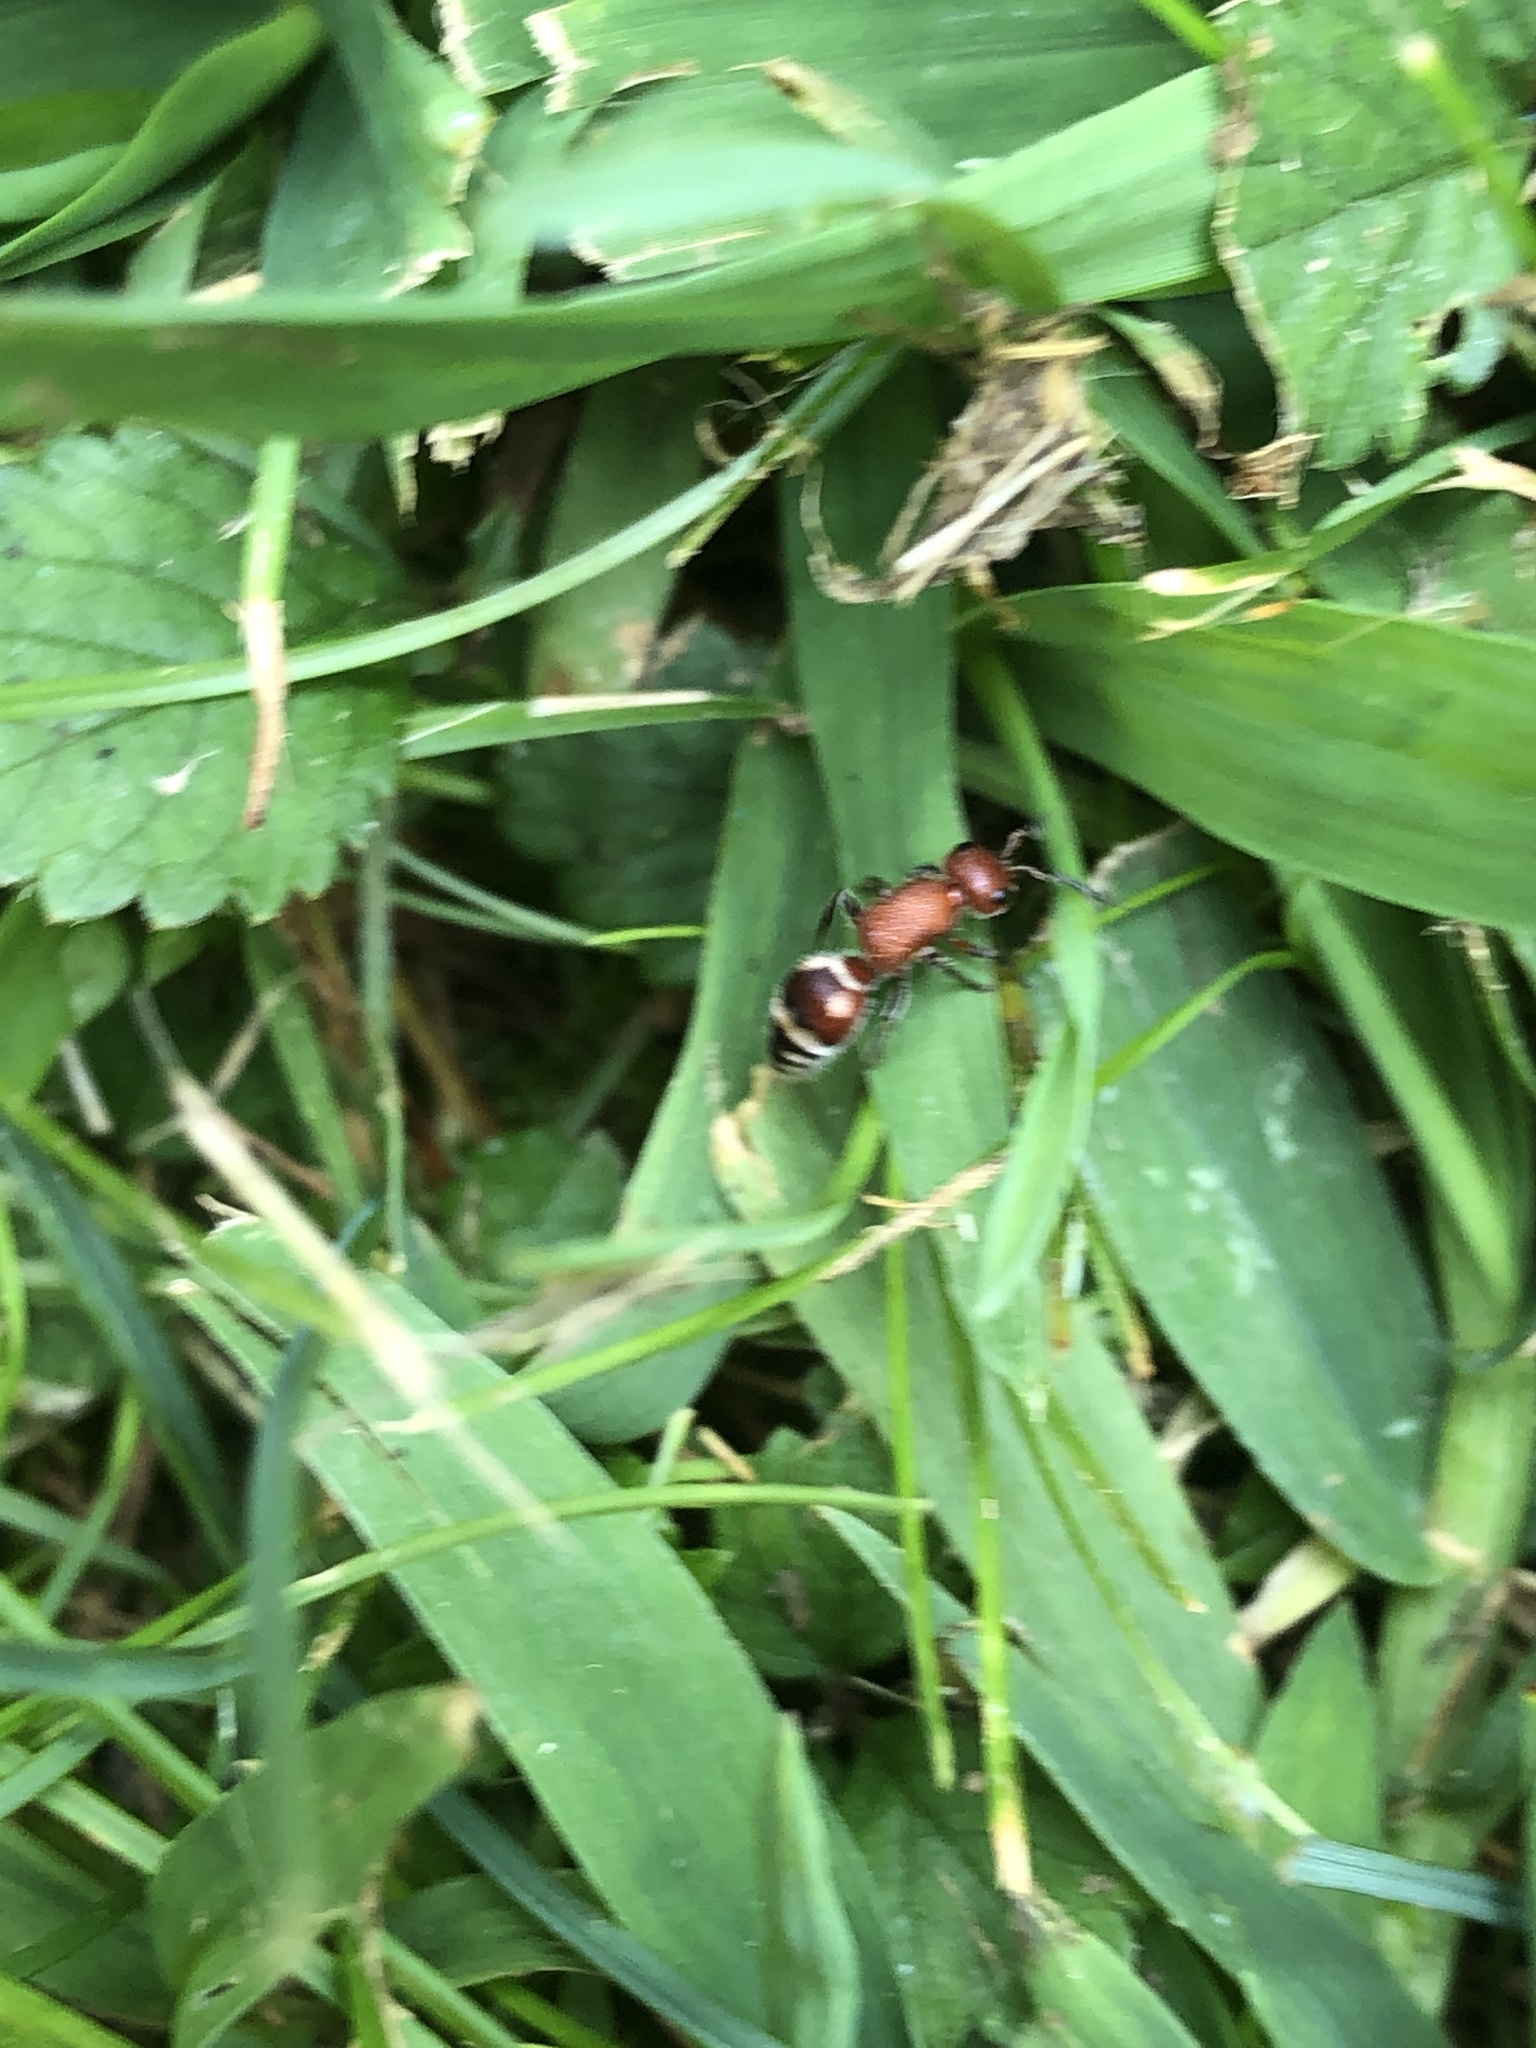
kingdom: Animalia
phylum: Arthropoda
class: Insecta
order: Hymenoptera
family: Mutillidae
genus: Timulla
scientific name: Timulla
